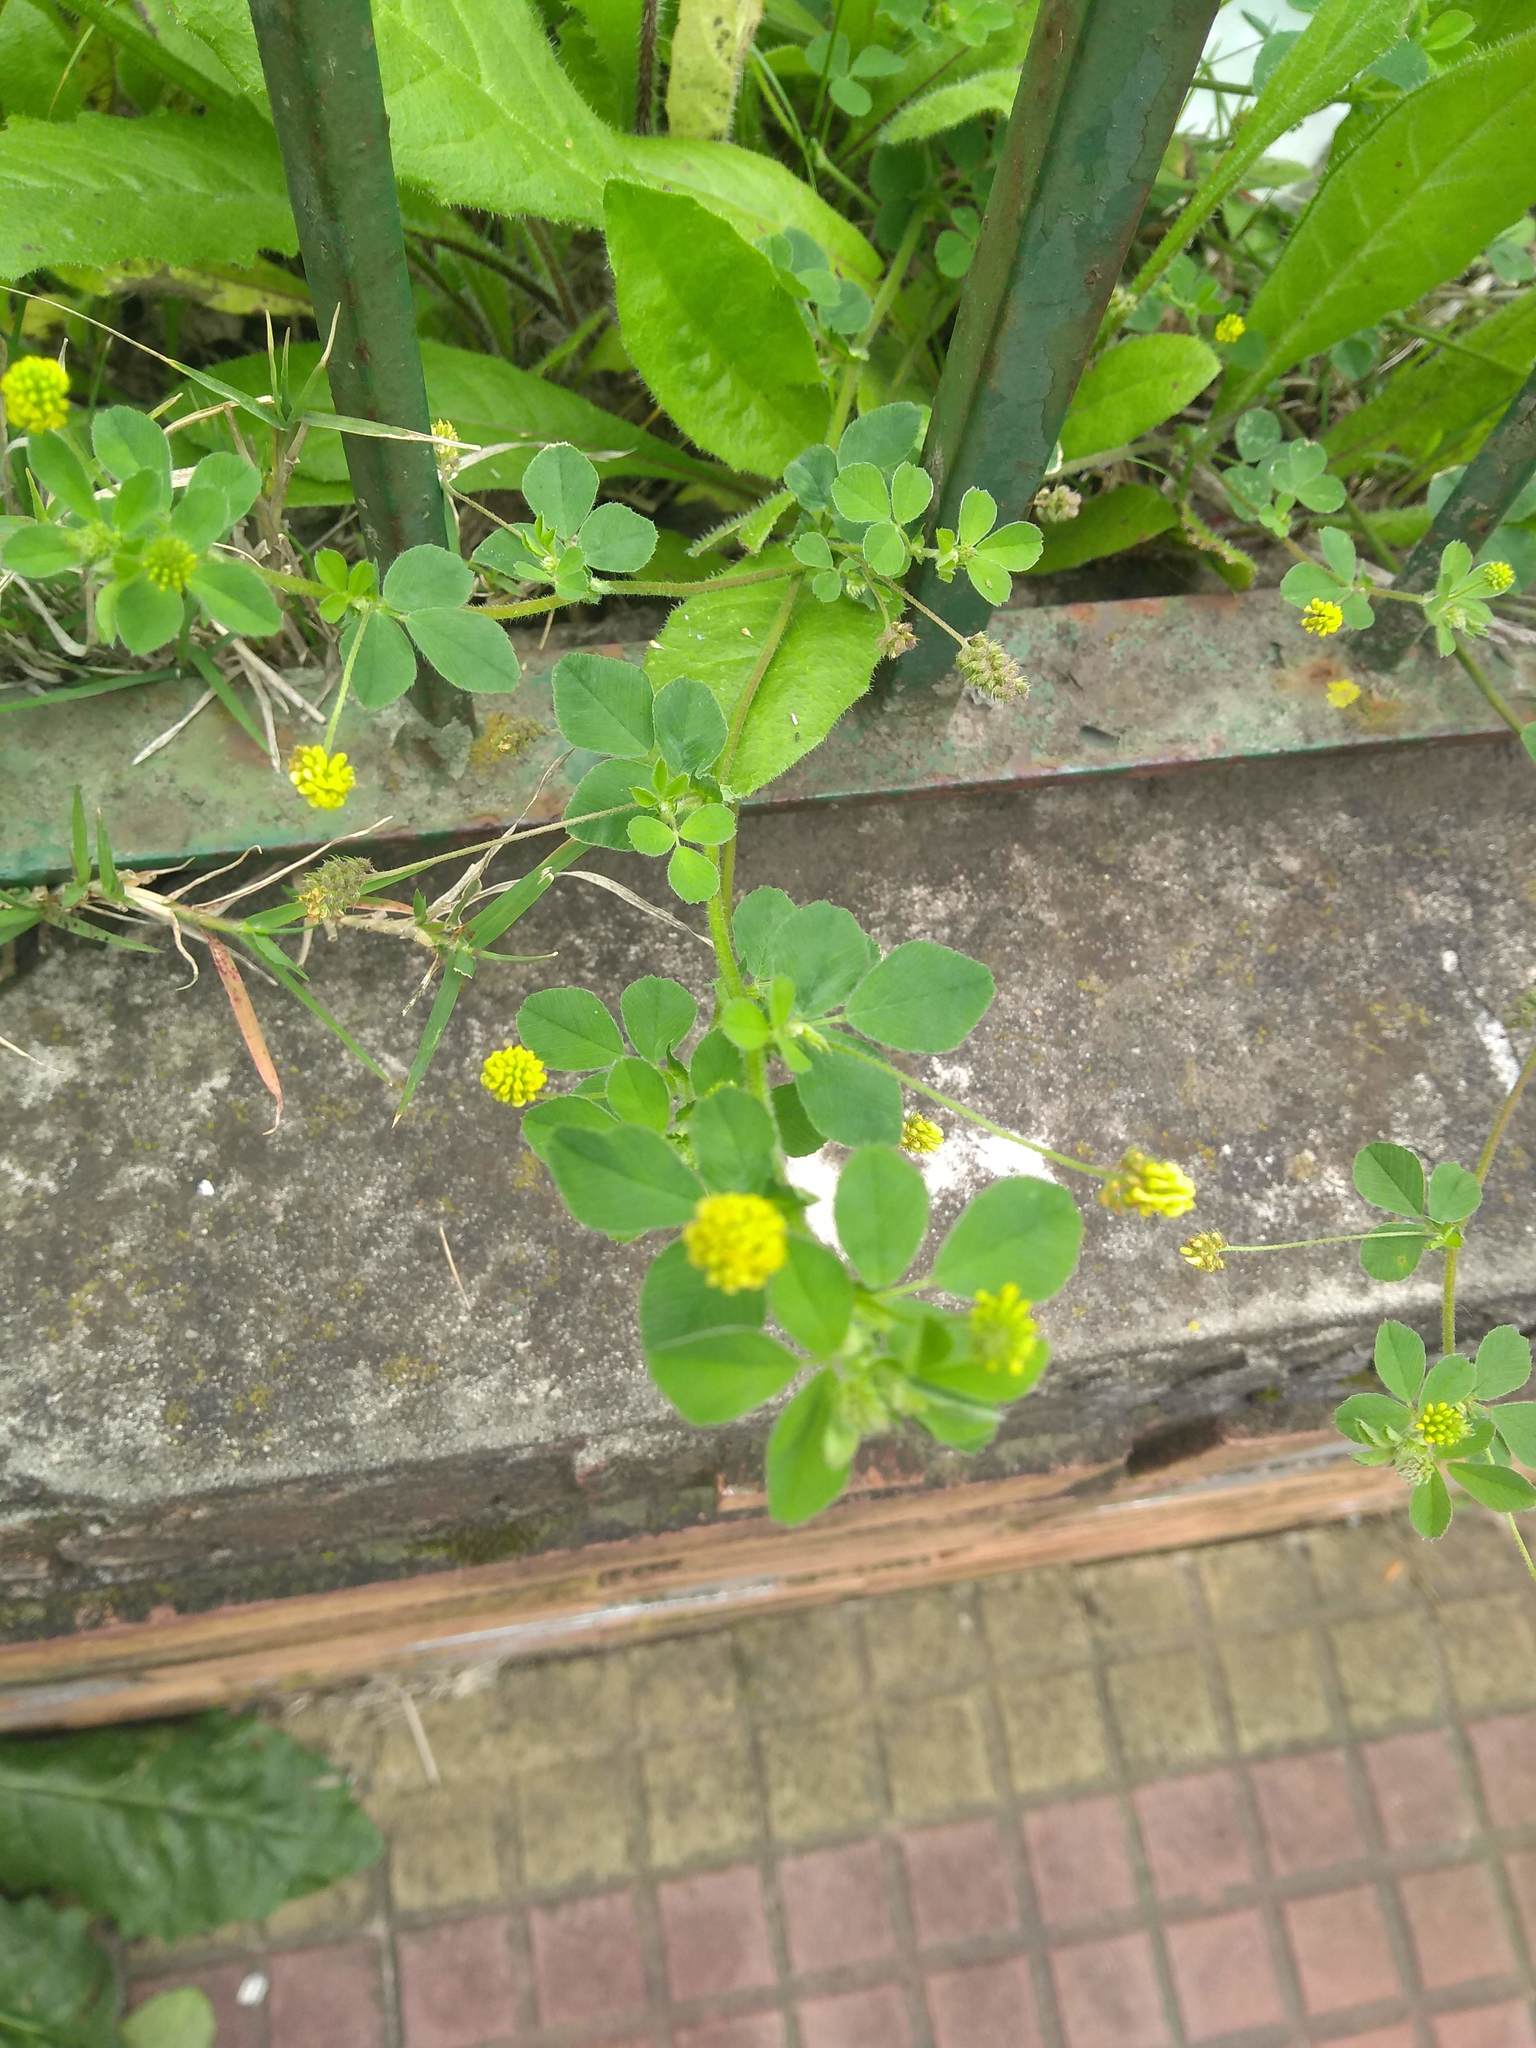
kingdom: Plantae
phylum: Tracheophyta
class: Magnoliopsida
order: Fabales
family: Fabaceae
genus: Medicago
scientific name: Medicago lupulina
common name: Black medick
